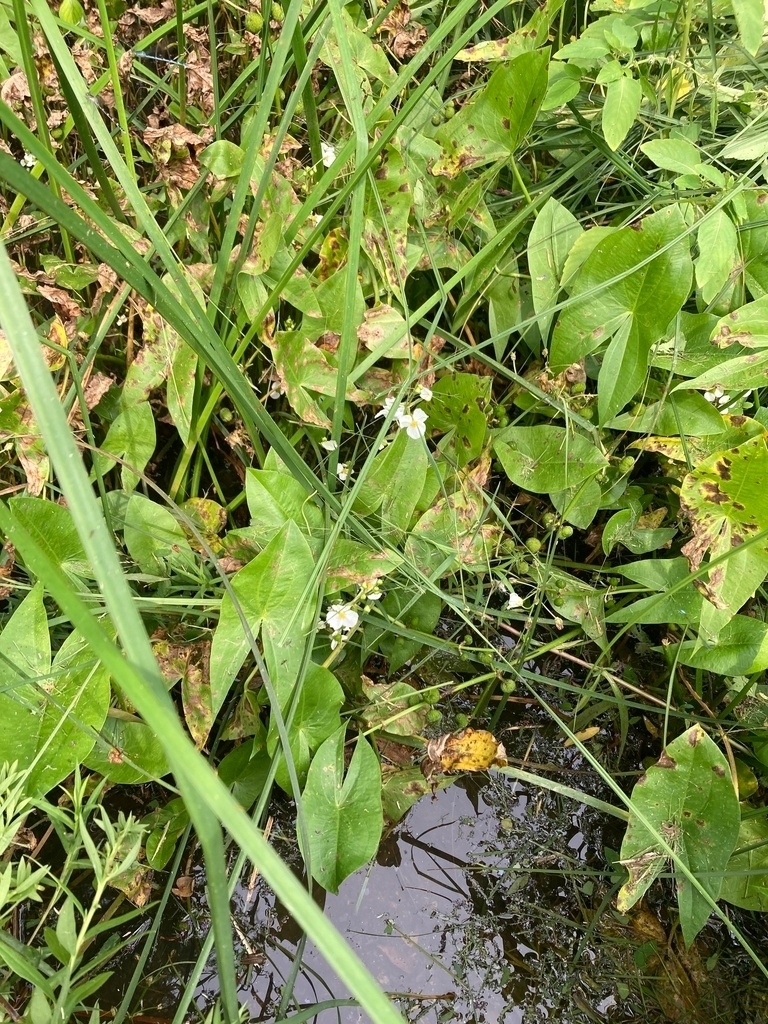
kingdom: Plantae
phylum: Tracheophyta
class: Liliopsida
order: Alismatales
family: Alismataceae
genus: Sagittaria
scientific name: Sagittaria cuneata
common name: Northern arrowhead
